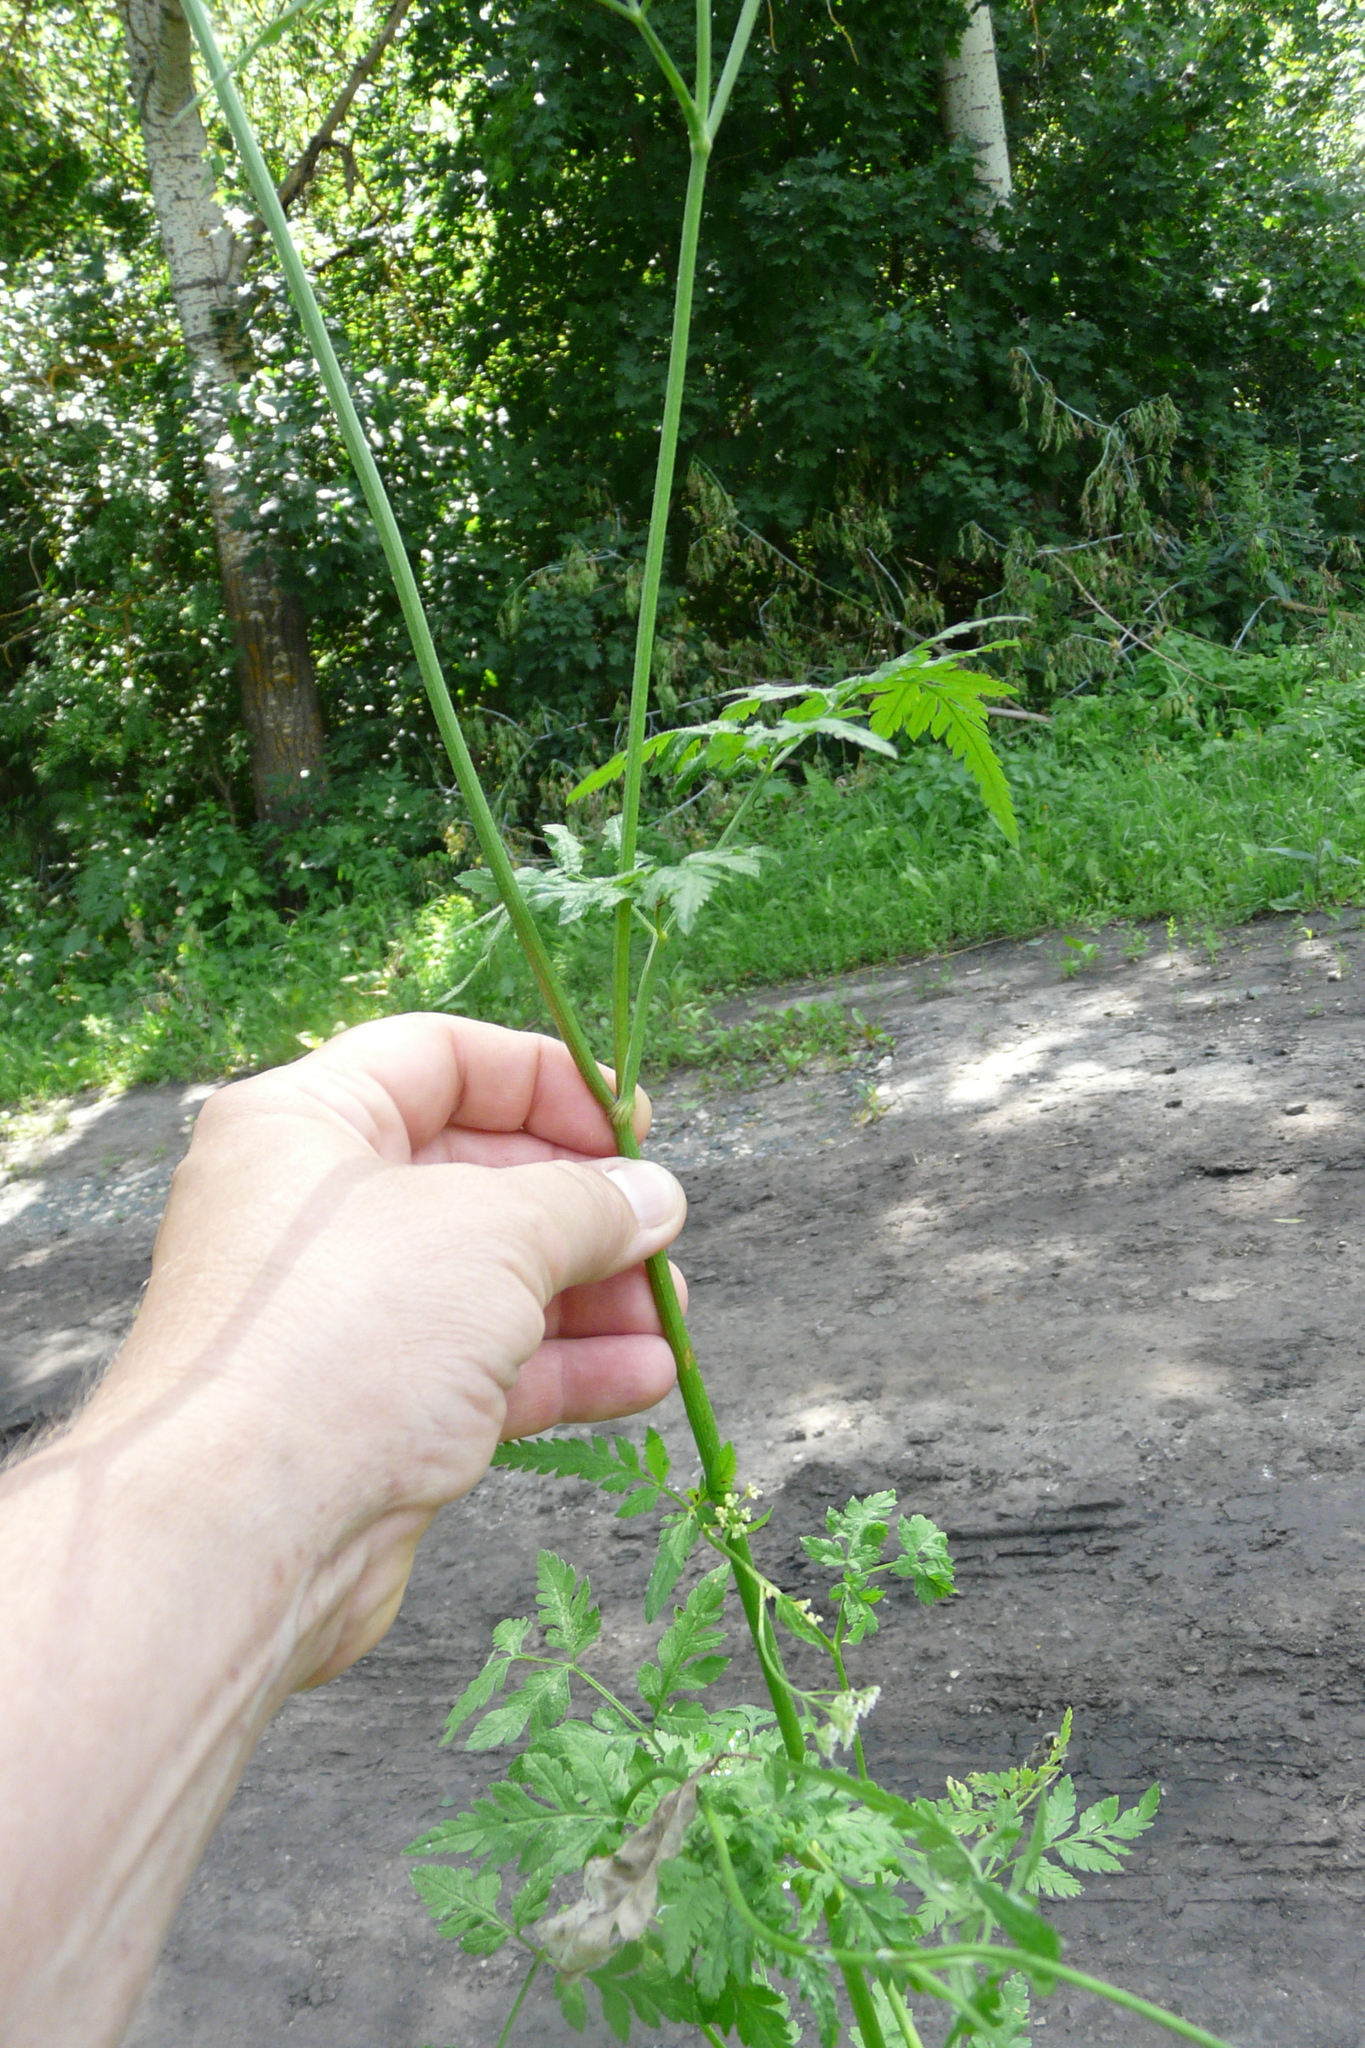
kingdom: Plantae
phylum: Tracheophyta
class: Magnoliopsida
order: Apiales
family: Apiaceae
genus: Torilis
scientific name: Torilis japonica
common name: Upright hedge-parsley
